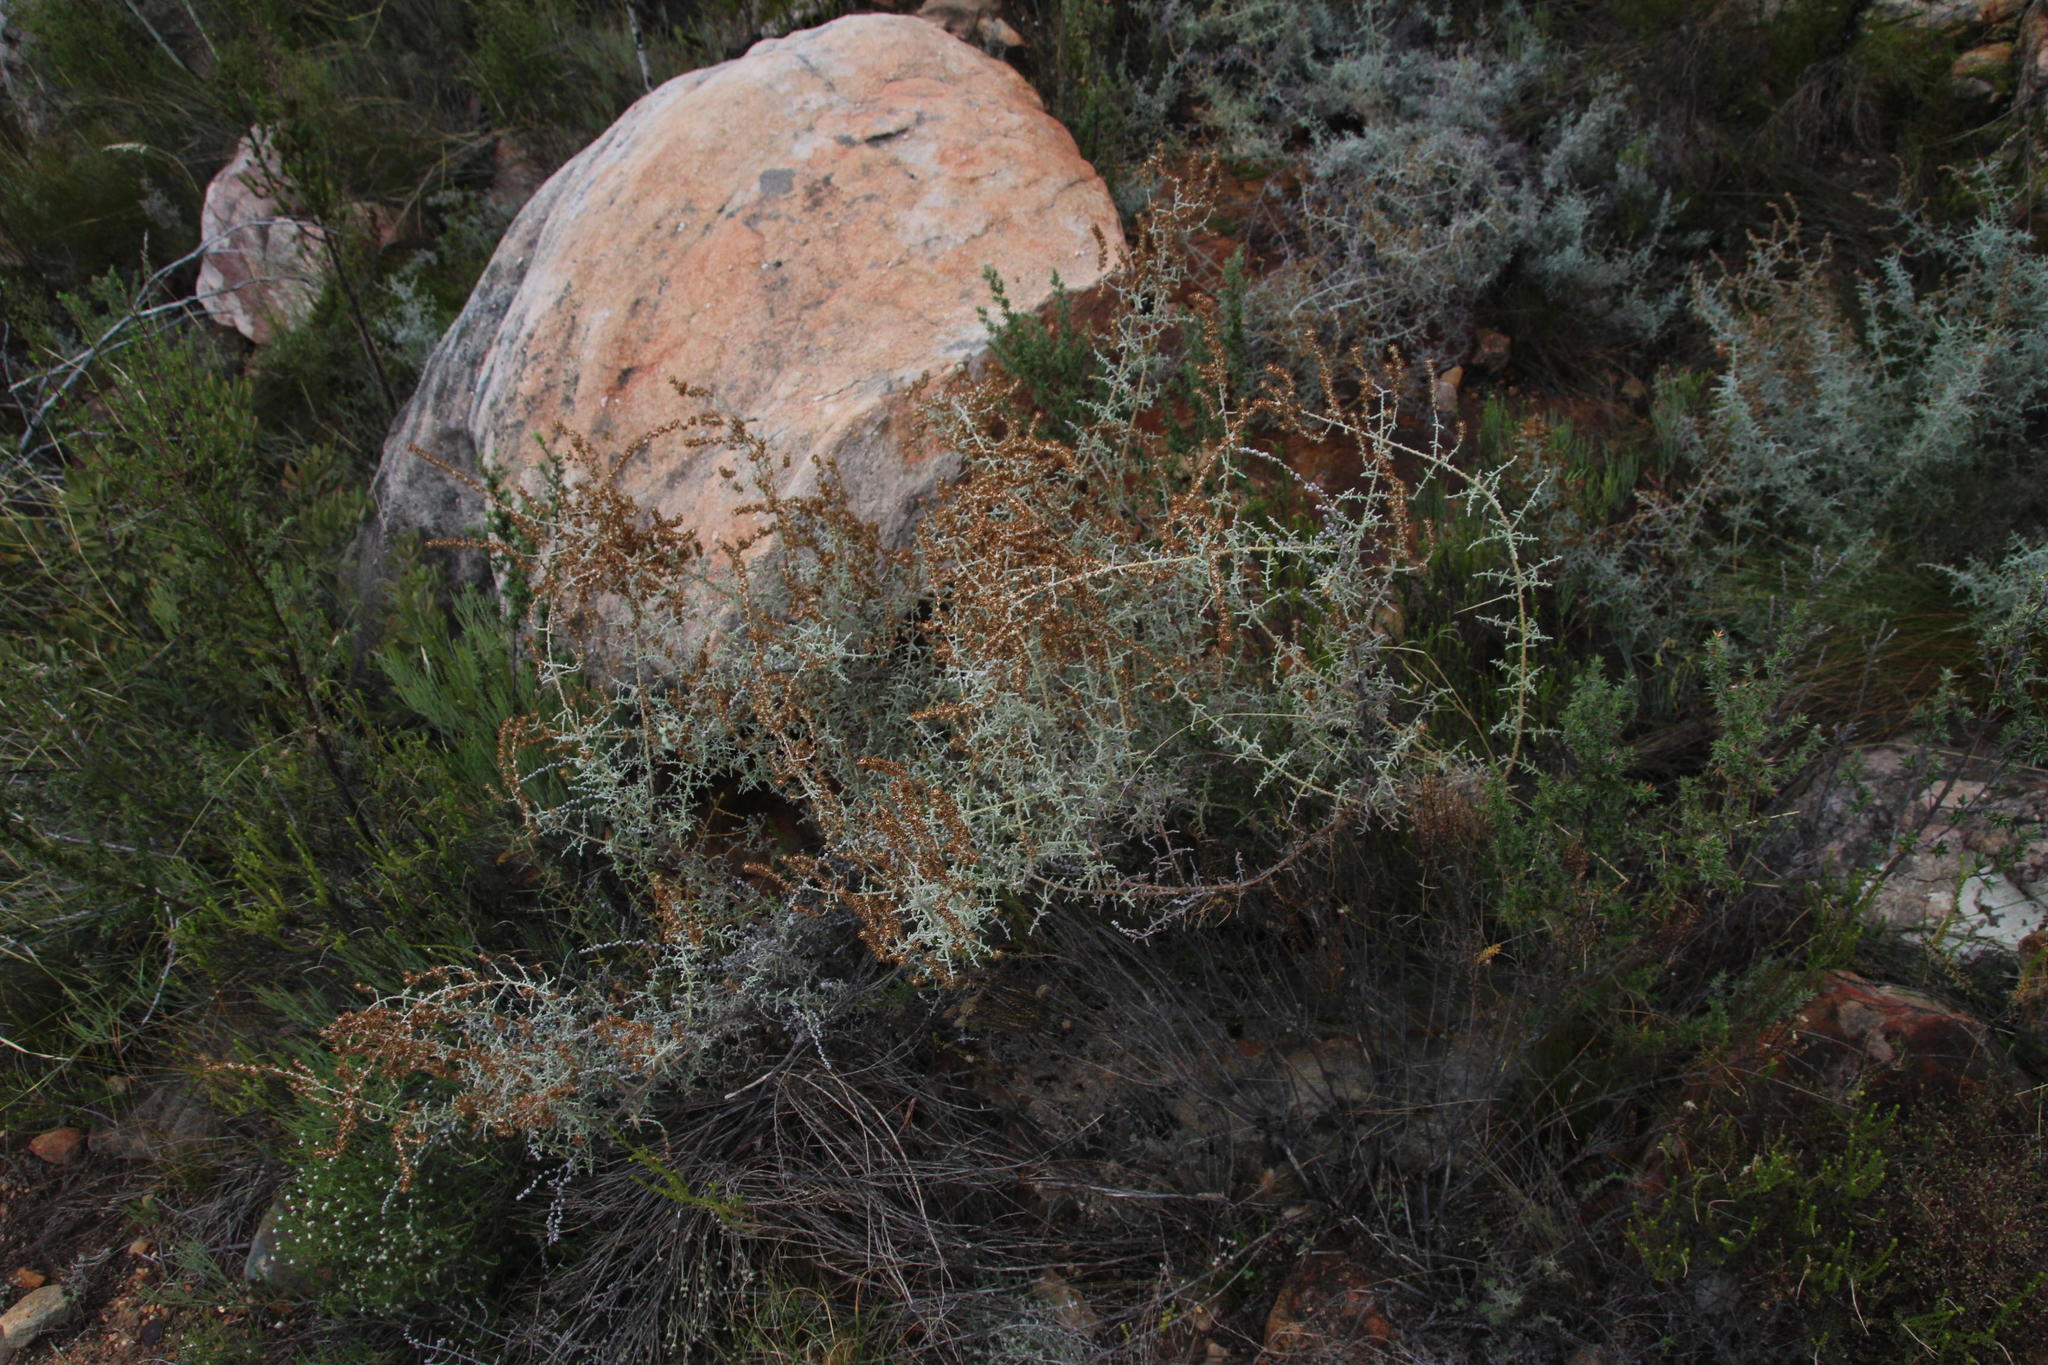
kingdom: Plantae
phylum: Tracheophyta
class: Magnoliopsida
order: Asterales
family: Asteraceae
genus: Seriphium
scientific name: Seriphium plumosum
